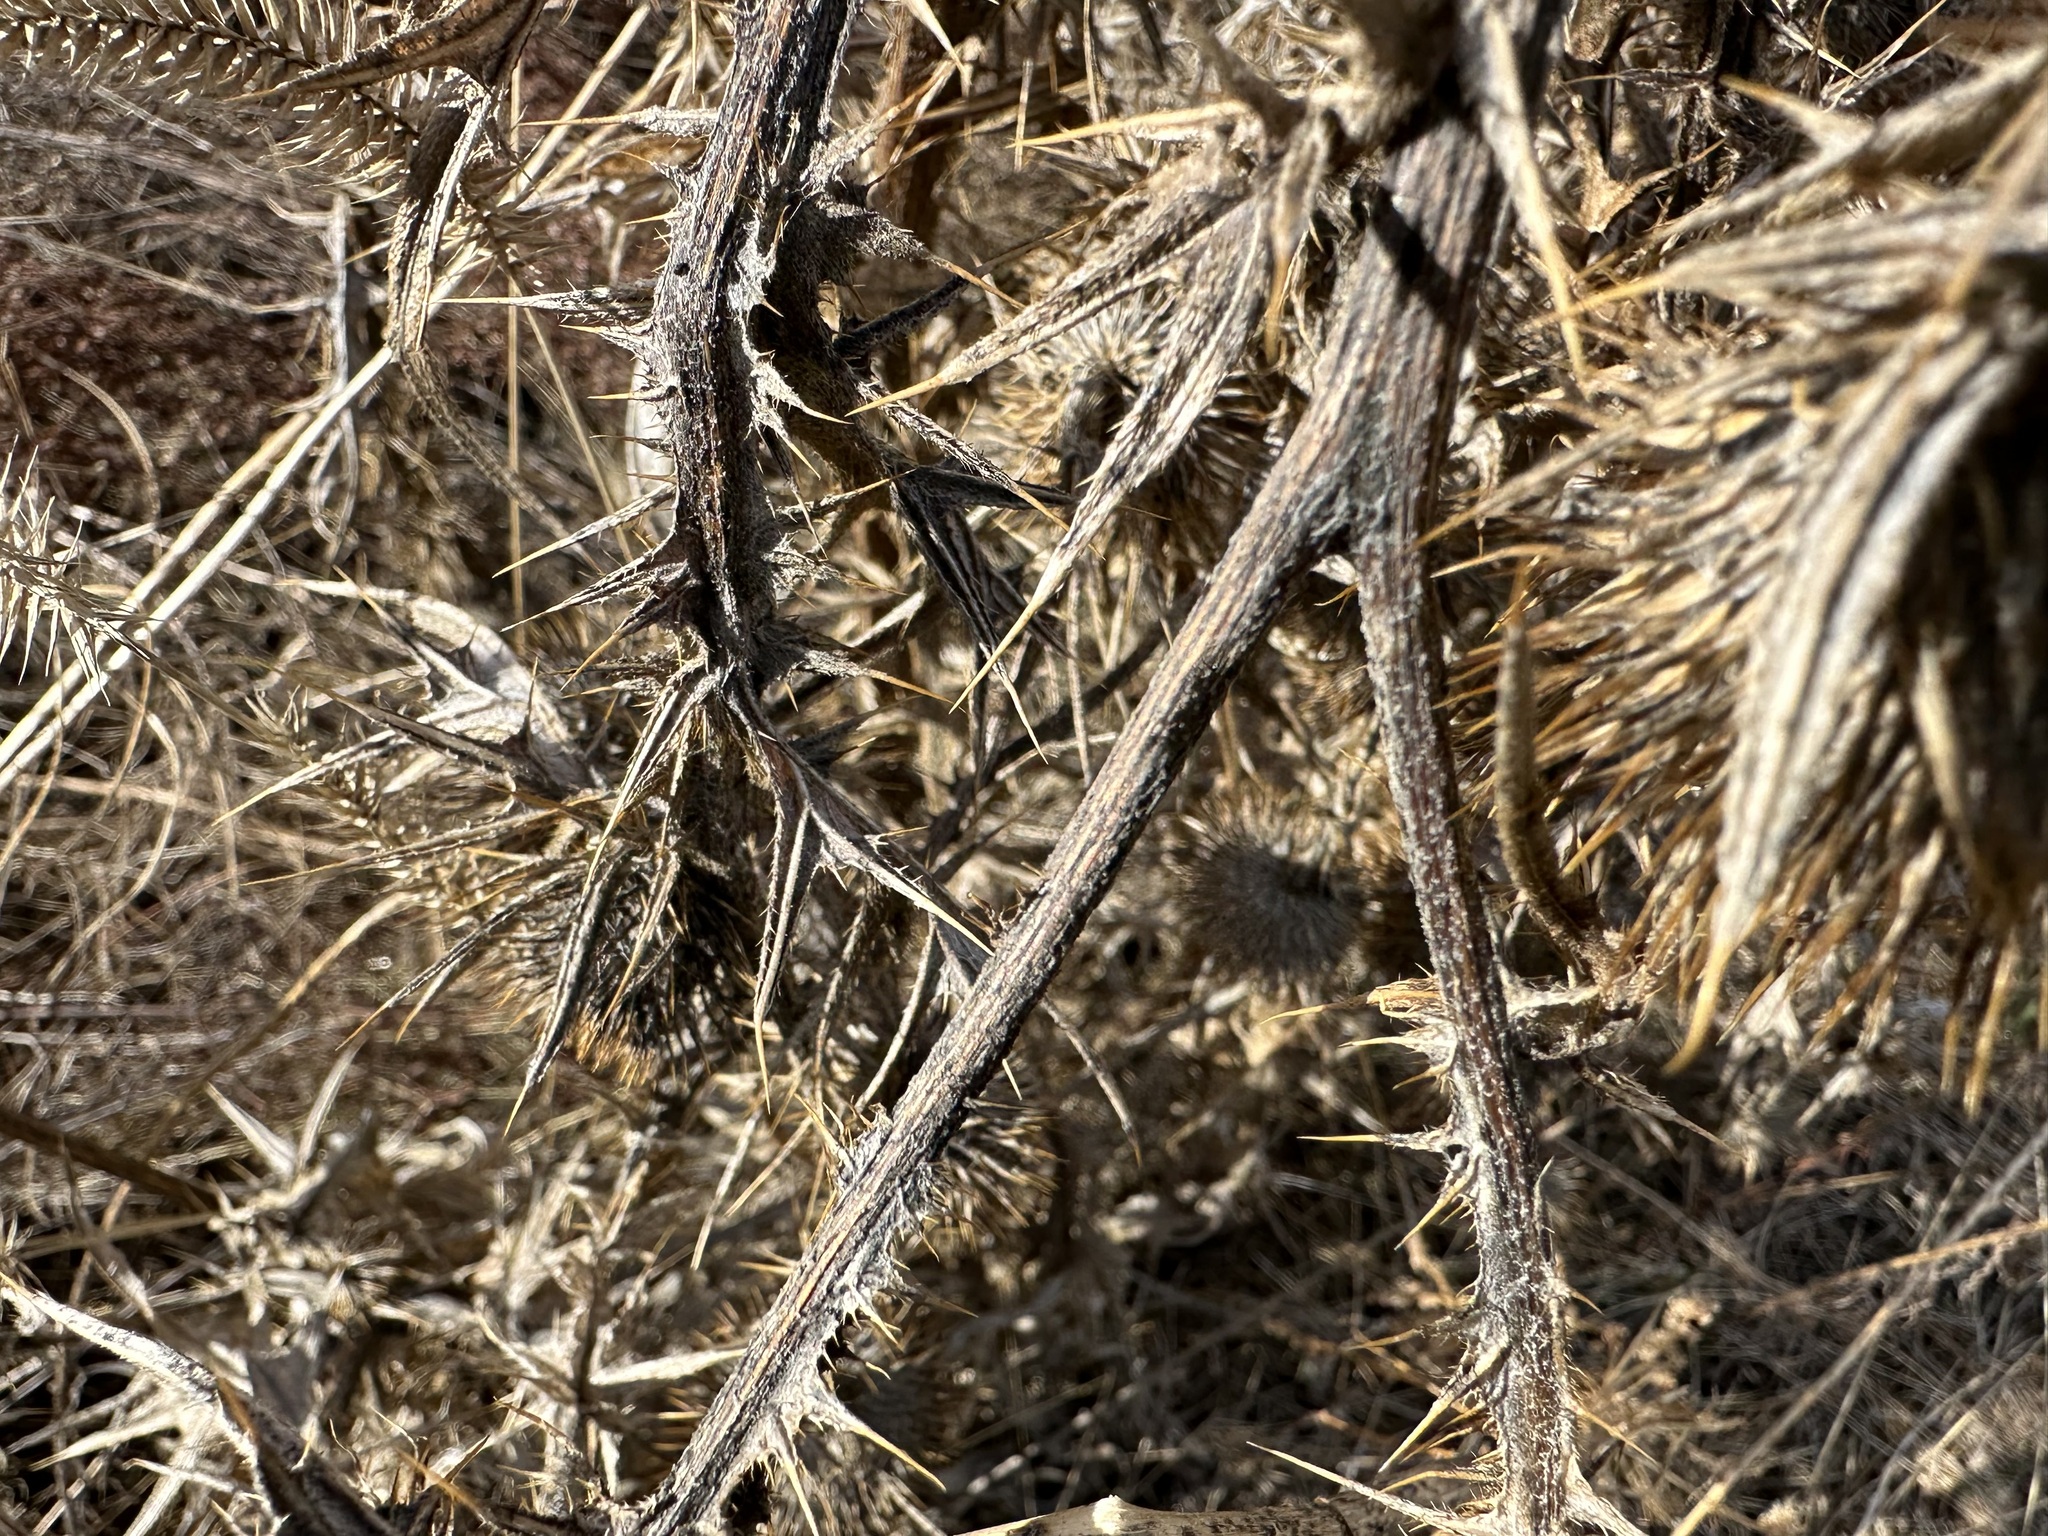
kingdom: Plantae
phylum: Tracheophyta
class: Magnoliopsida
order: Asterales
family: Asteraceae
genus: Cirsium
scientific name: Cirsium vulgare
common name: Bull thistle
